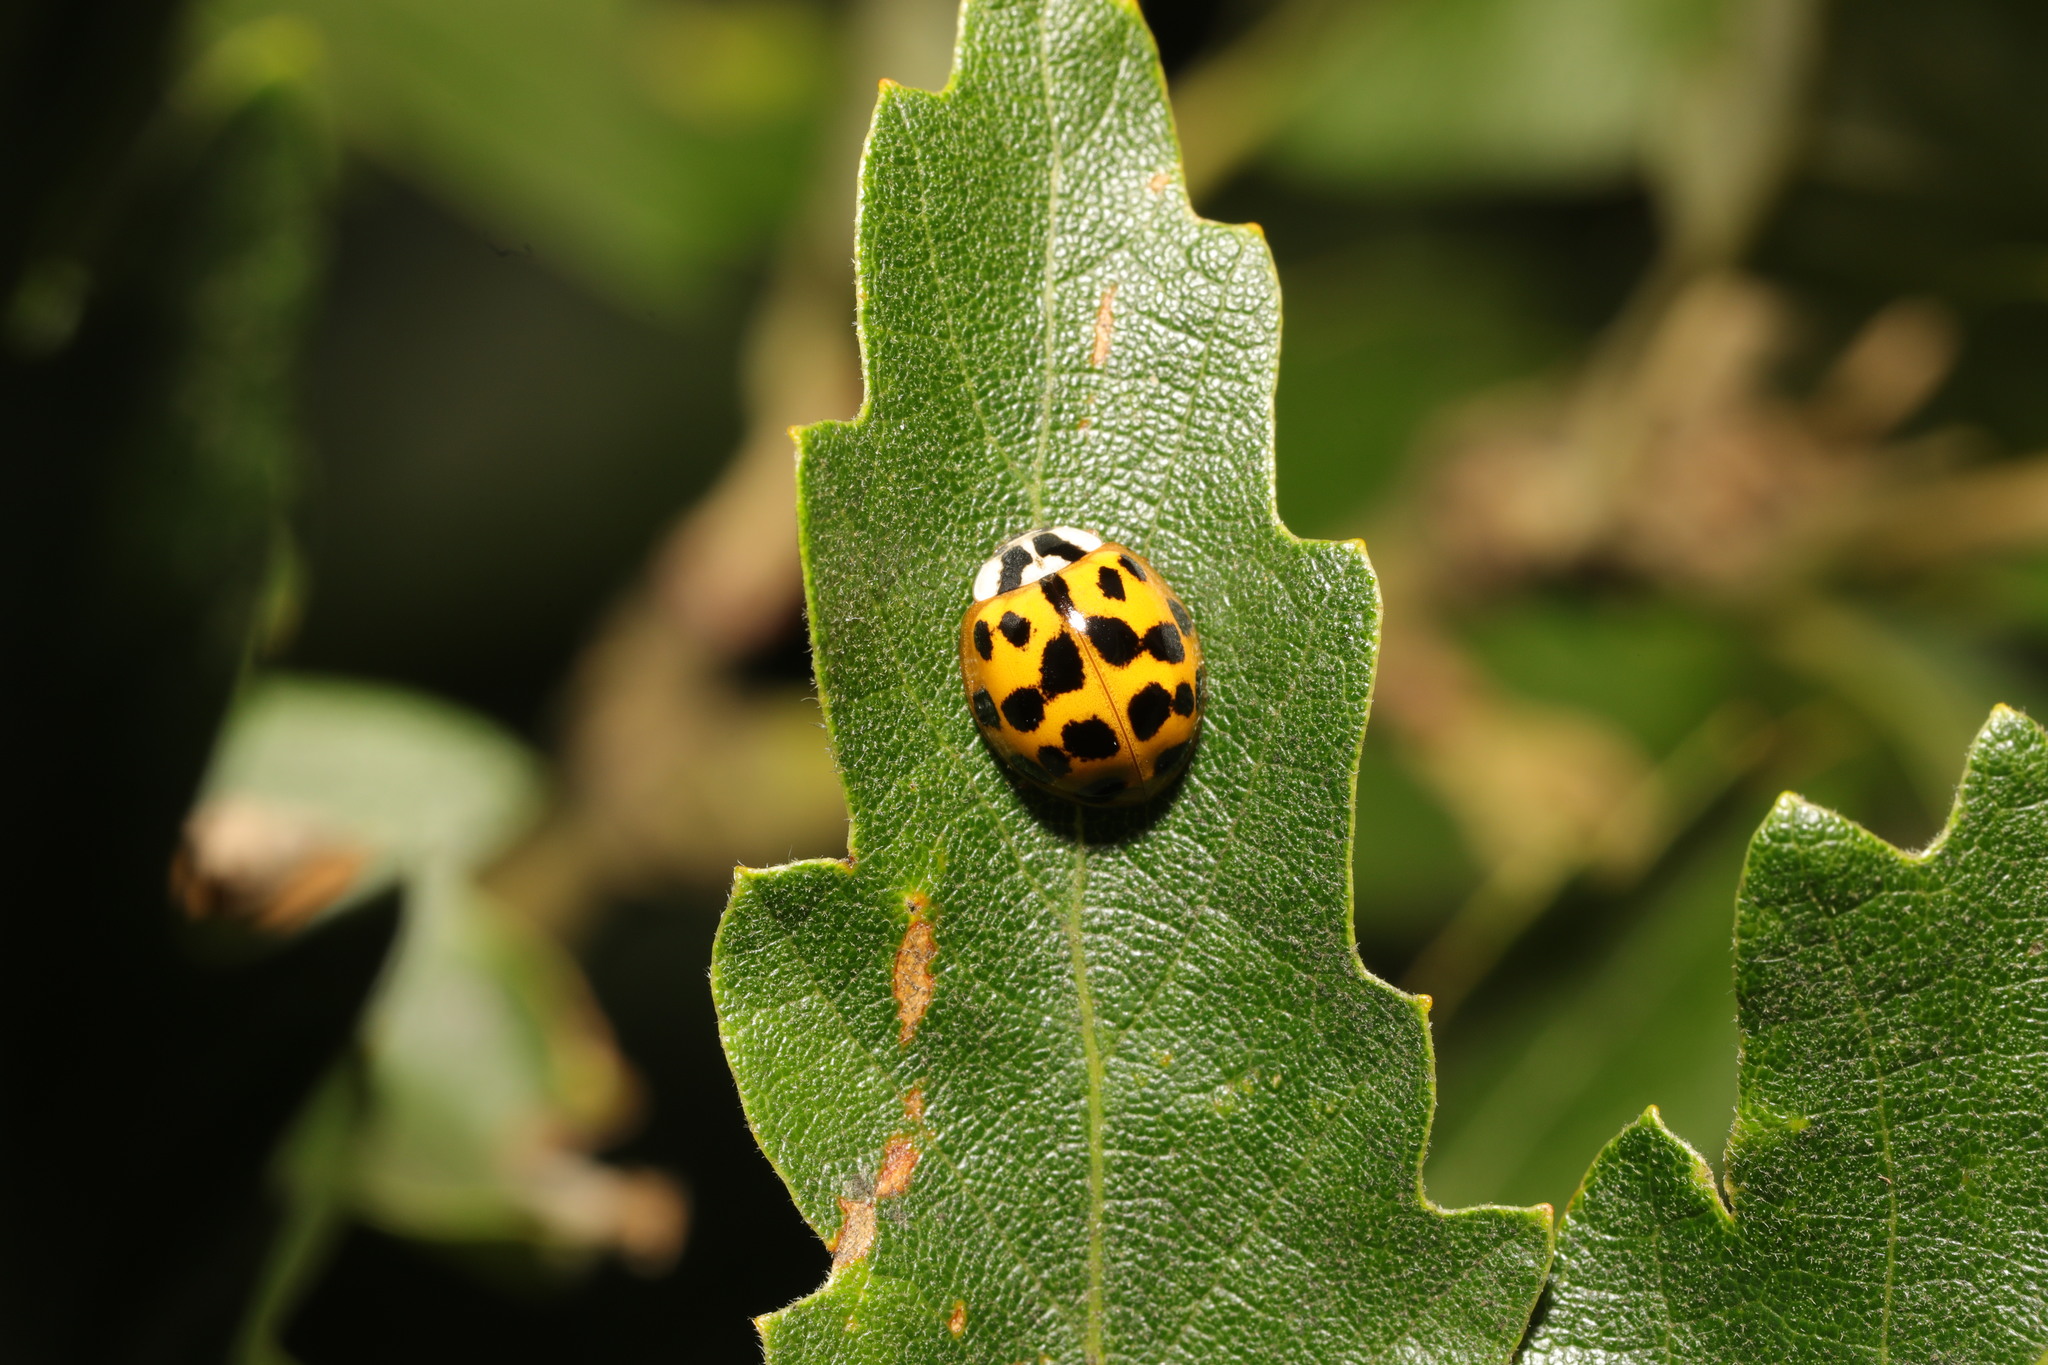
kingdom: Animalia
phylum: Arthropoda
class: Insecta
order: Coleoptera
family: Coccinellidae
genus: Harmonia
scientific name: Harmonia axyridis
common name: Harlequin ladybird
